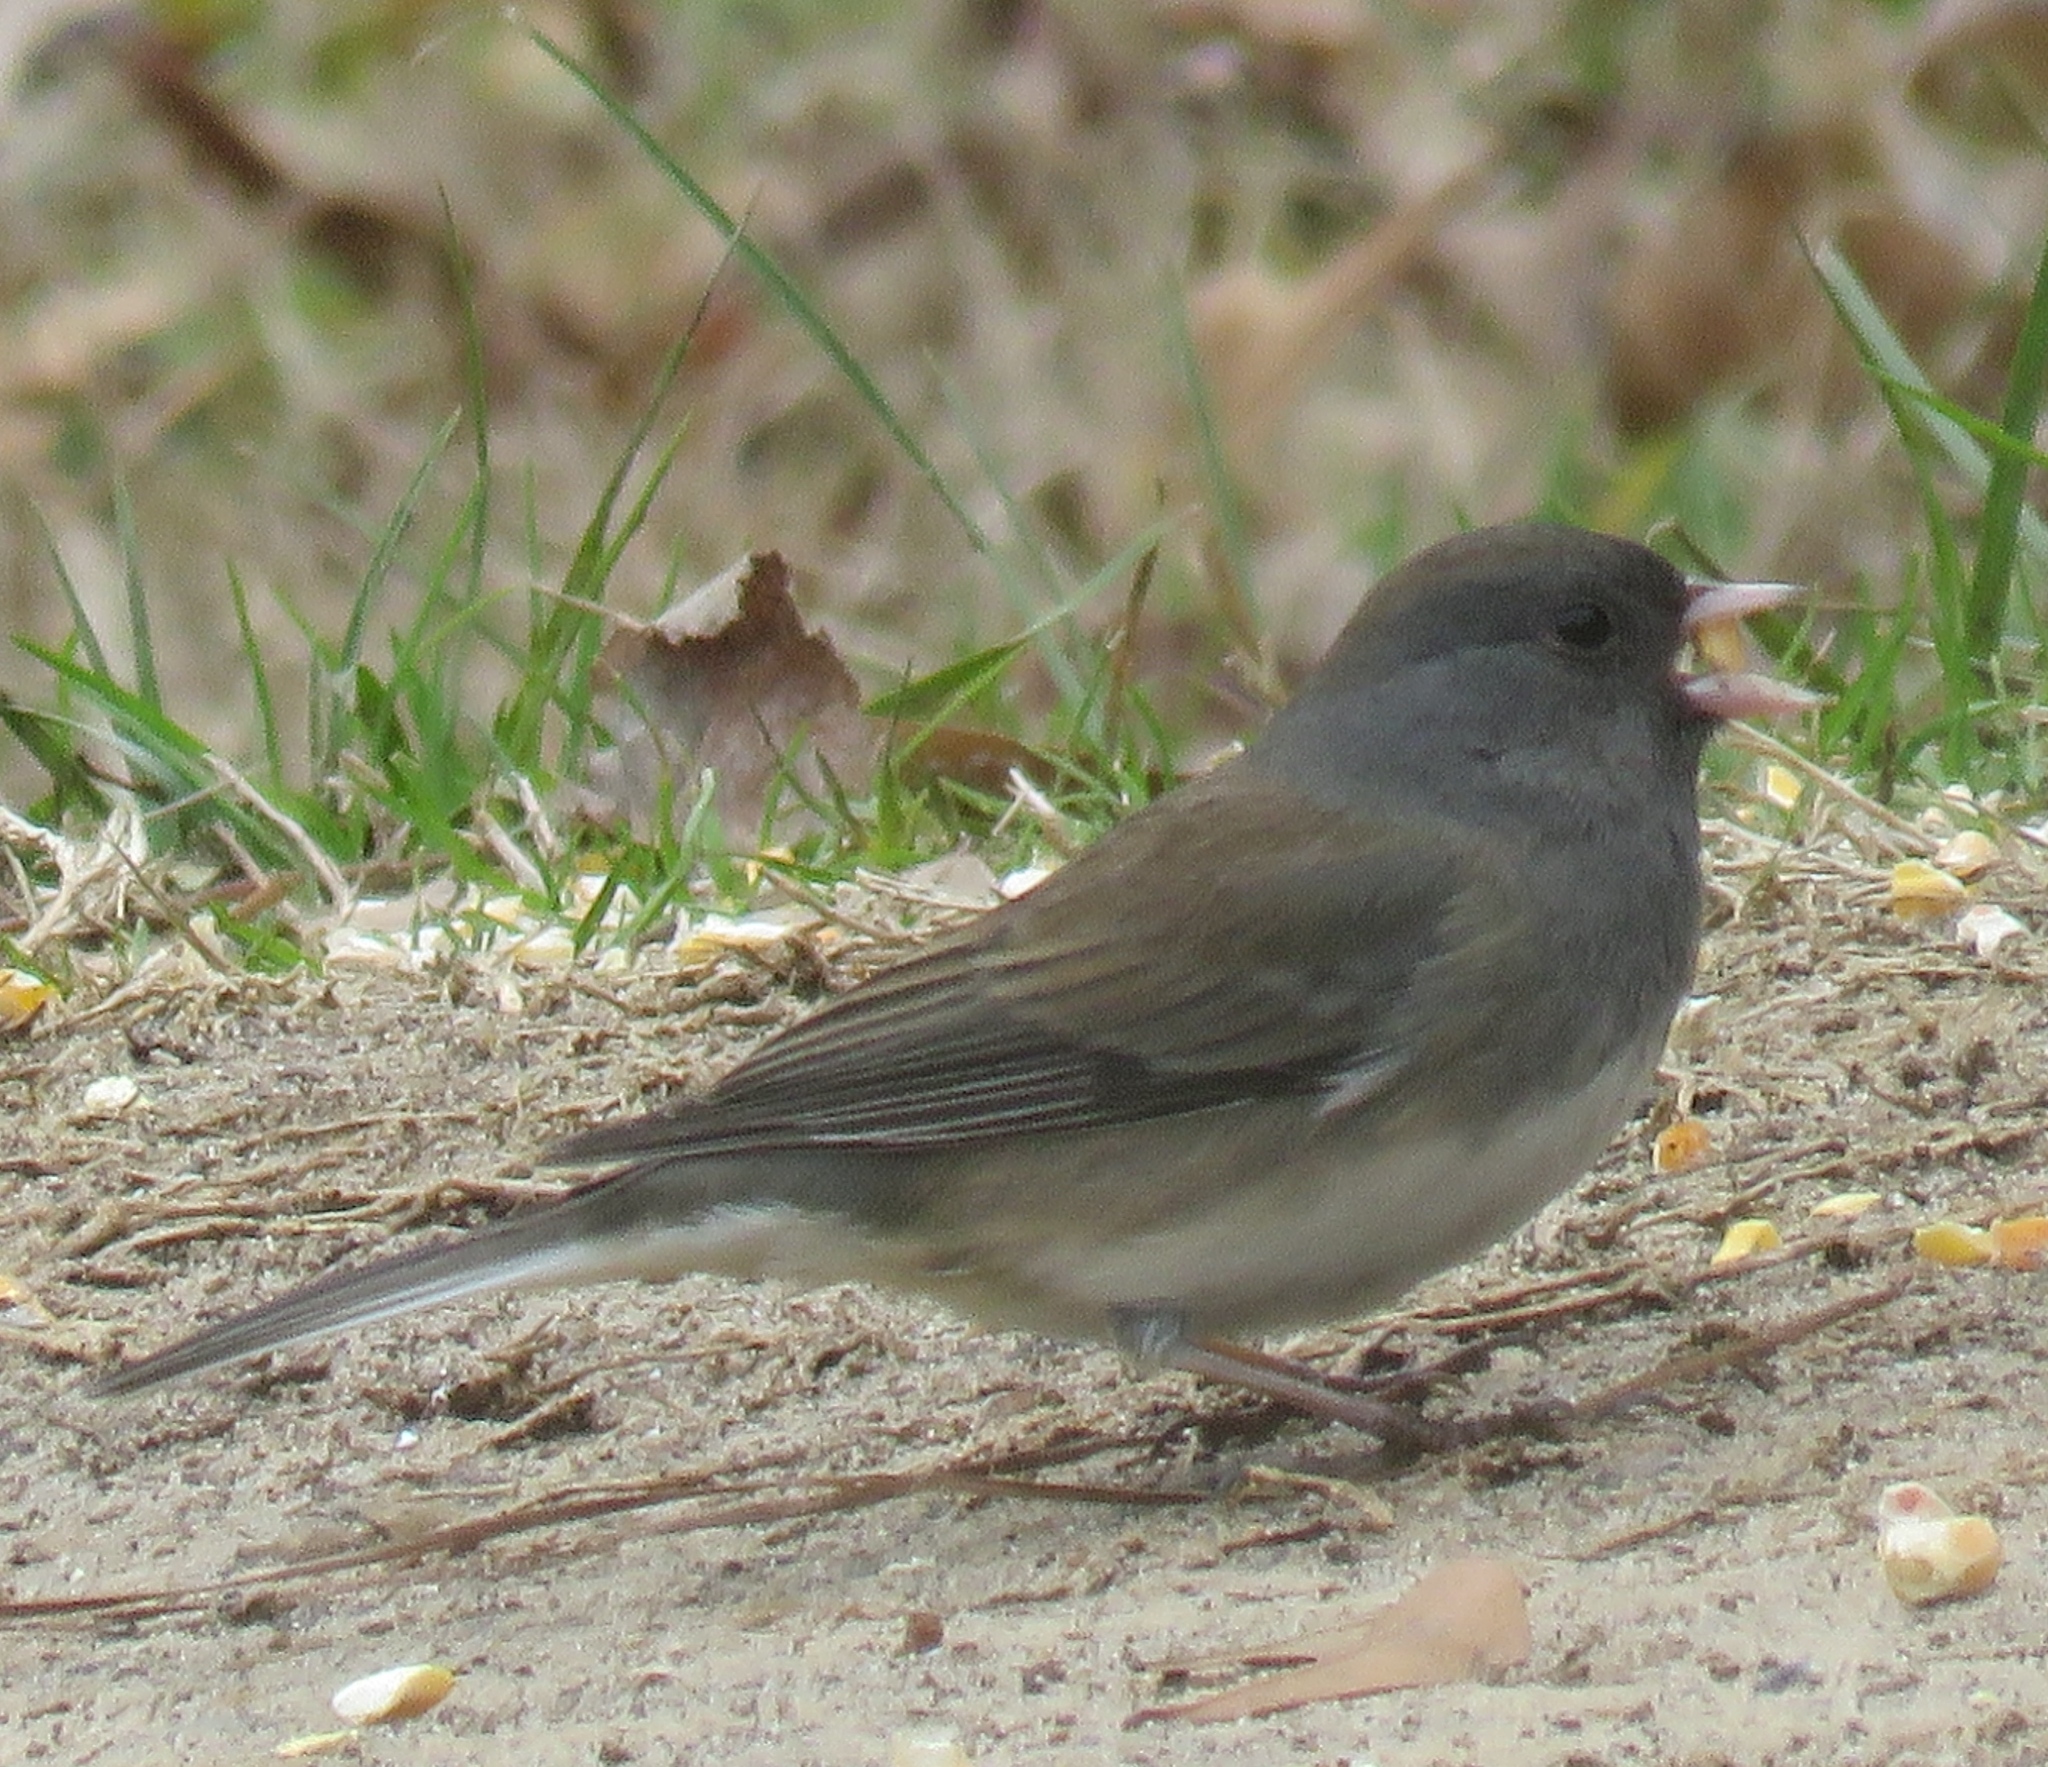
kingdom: Animalia
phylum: Chordata
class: Aves
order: Passeriformes
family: Passerellidae
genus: Junco
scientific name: Junco hyemalis
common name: Dark-eyed junco
